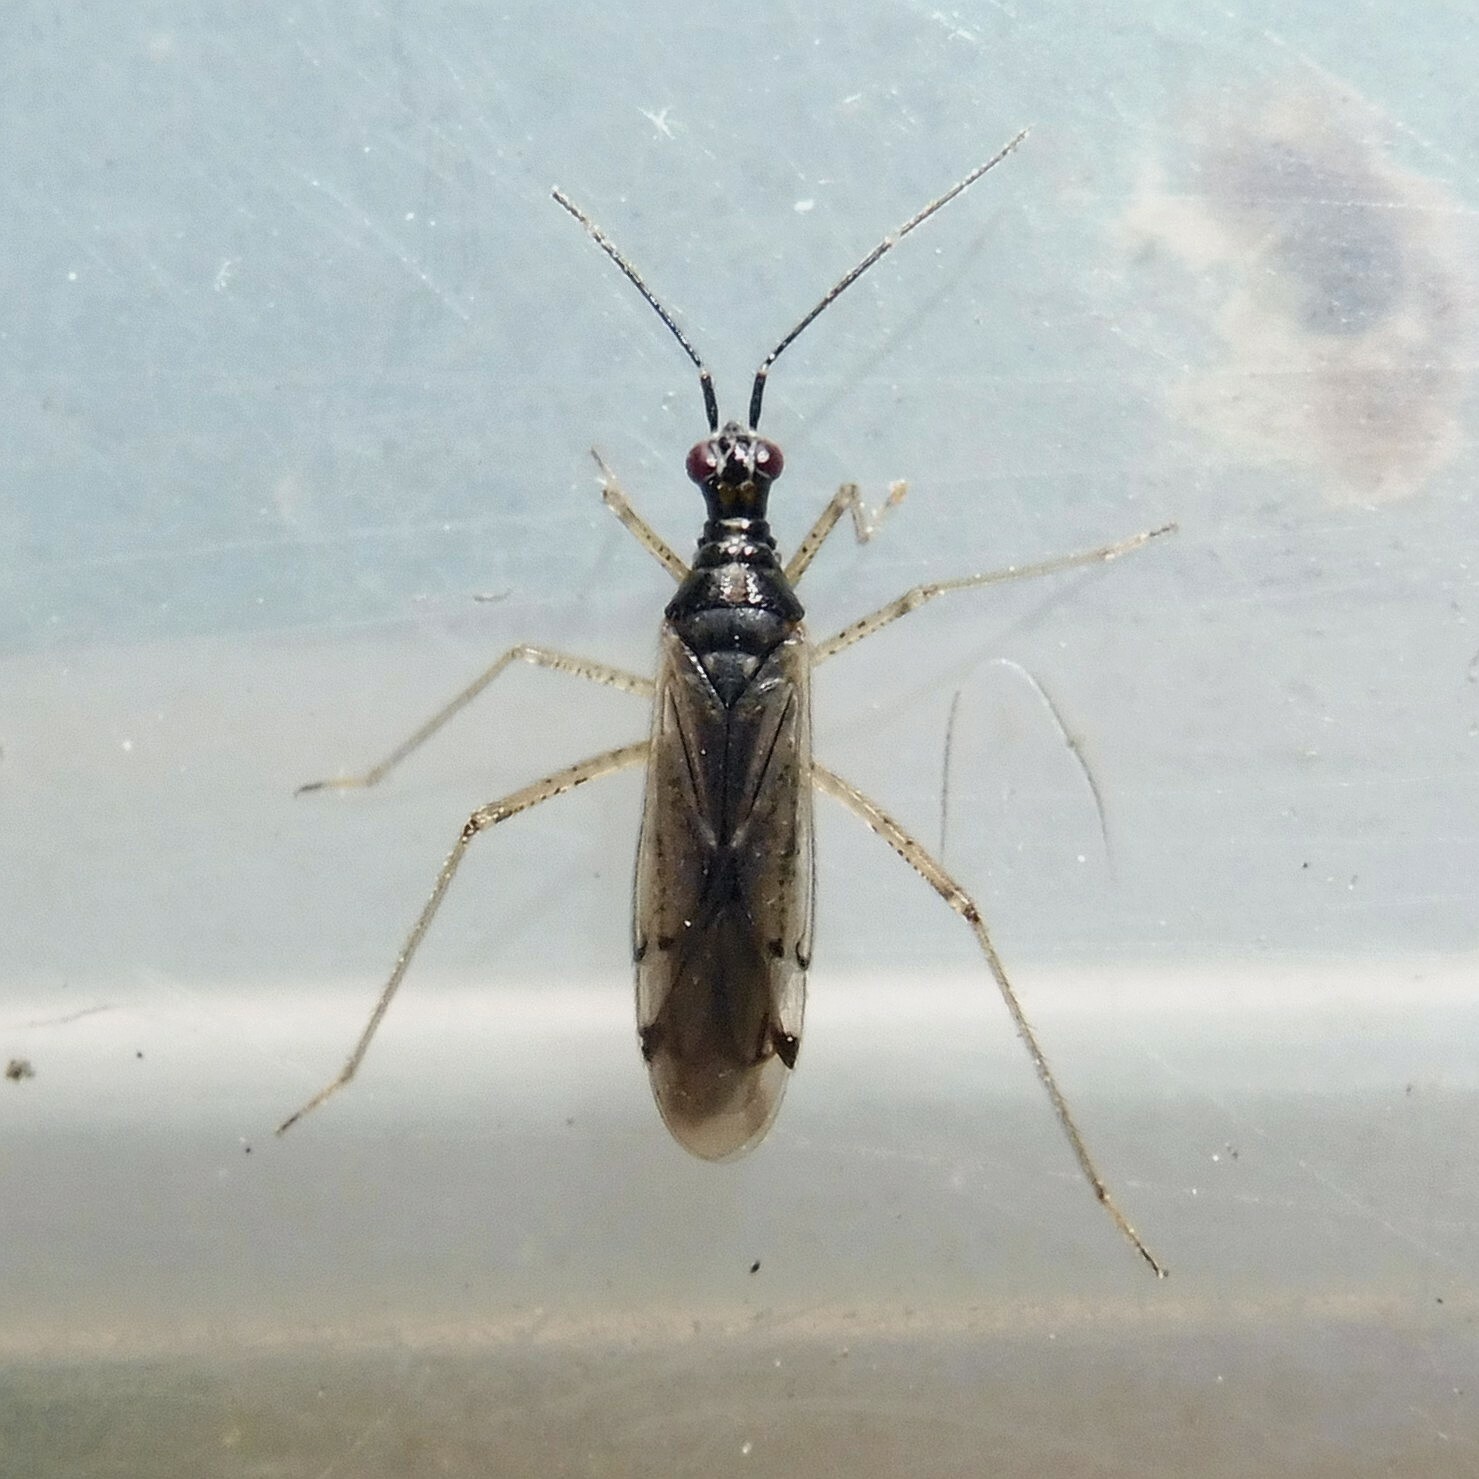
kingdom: Animalia
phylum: Arthropoda
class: Insecta
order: Hemiptera
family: Miridae
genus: Dicyphus
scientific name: Dicyphus errans
